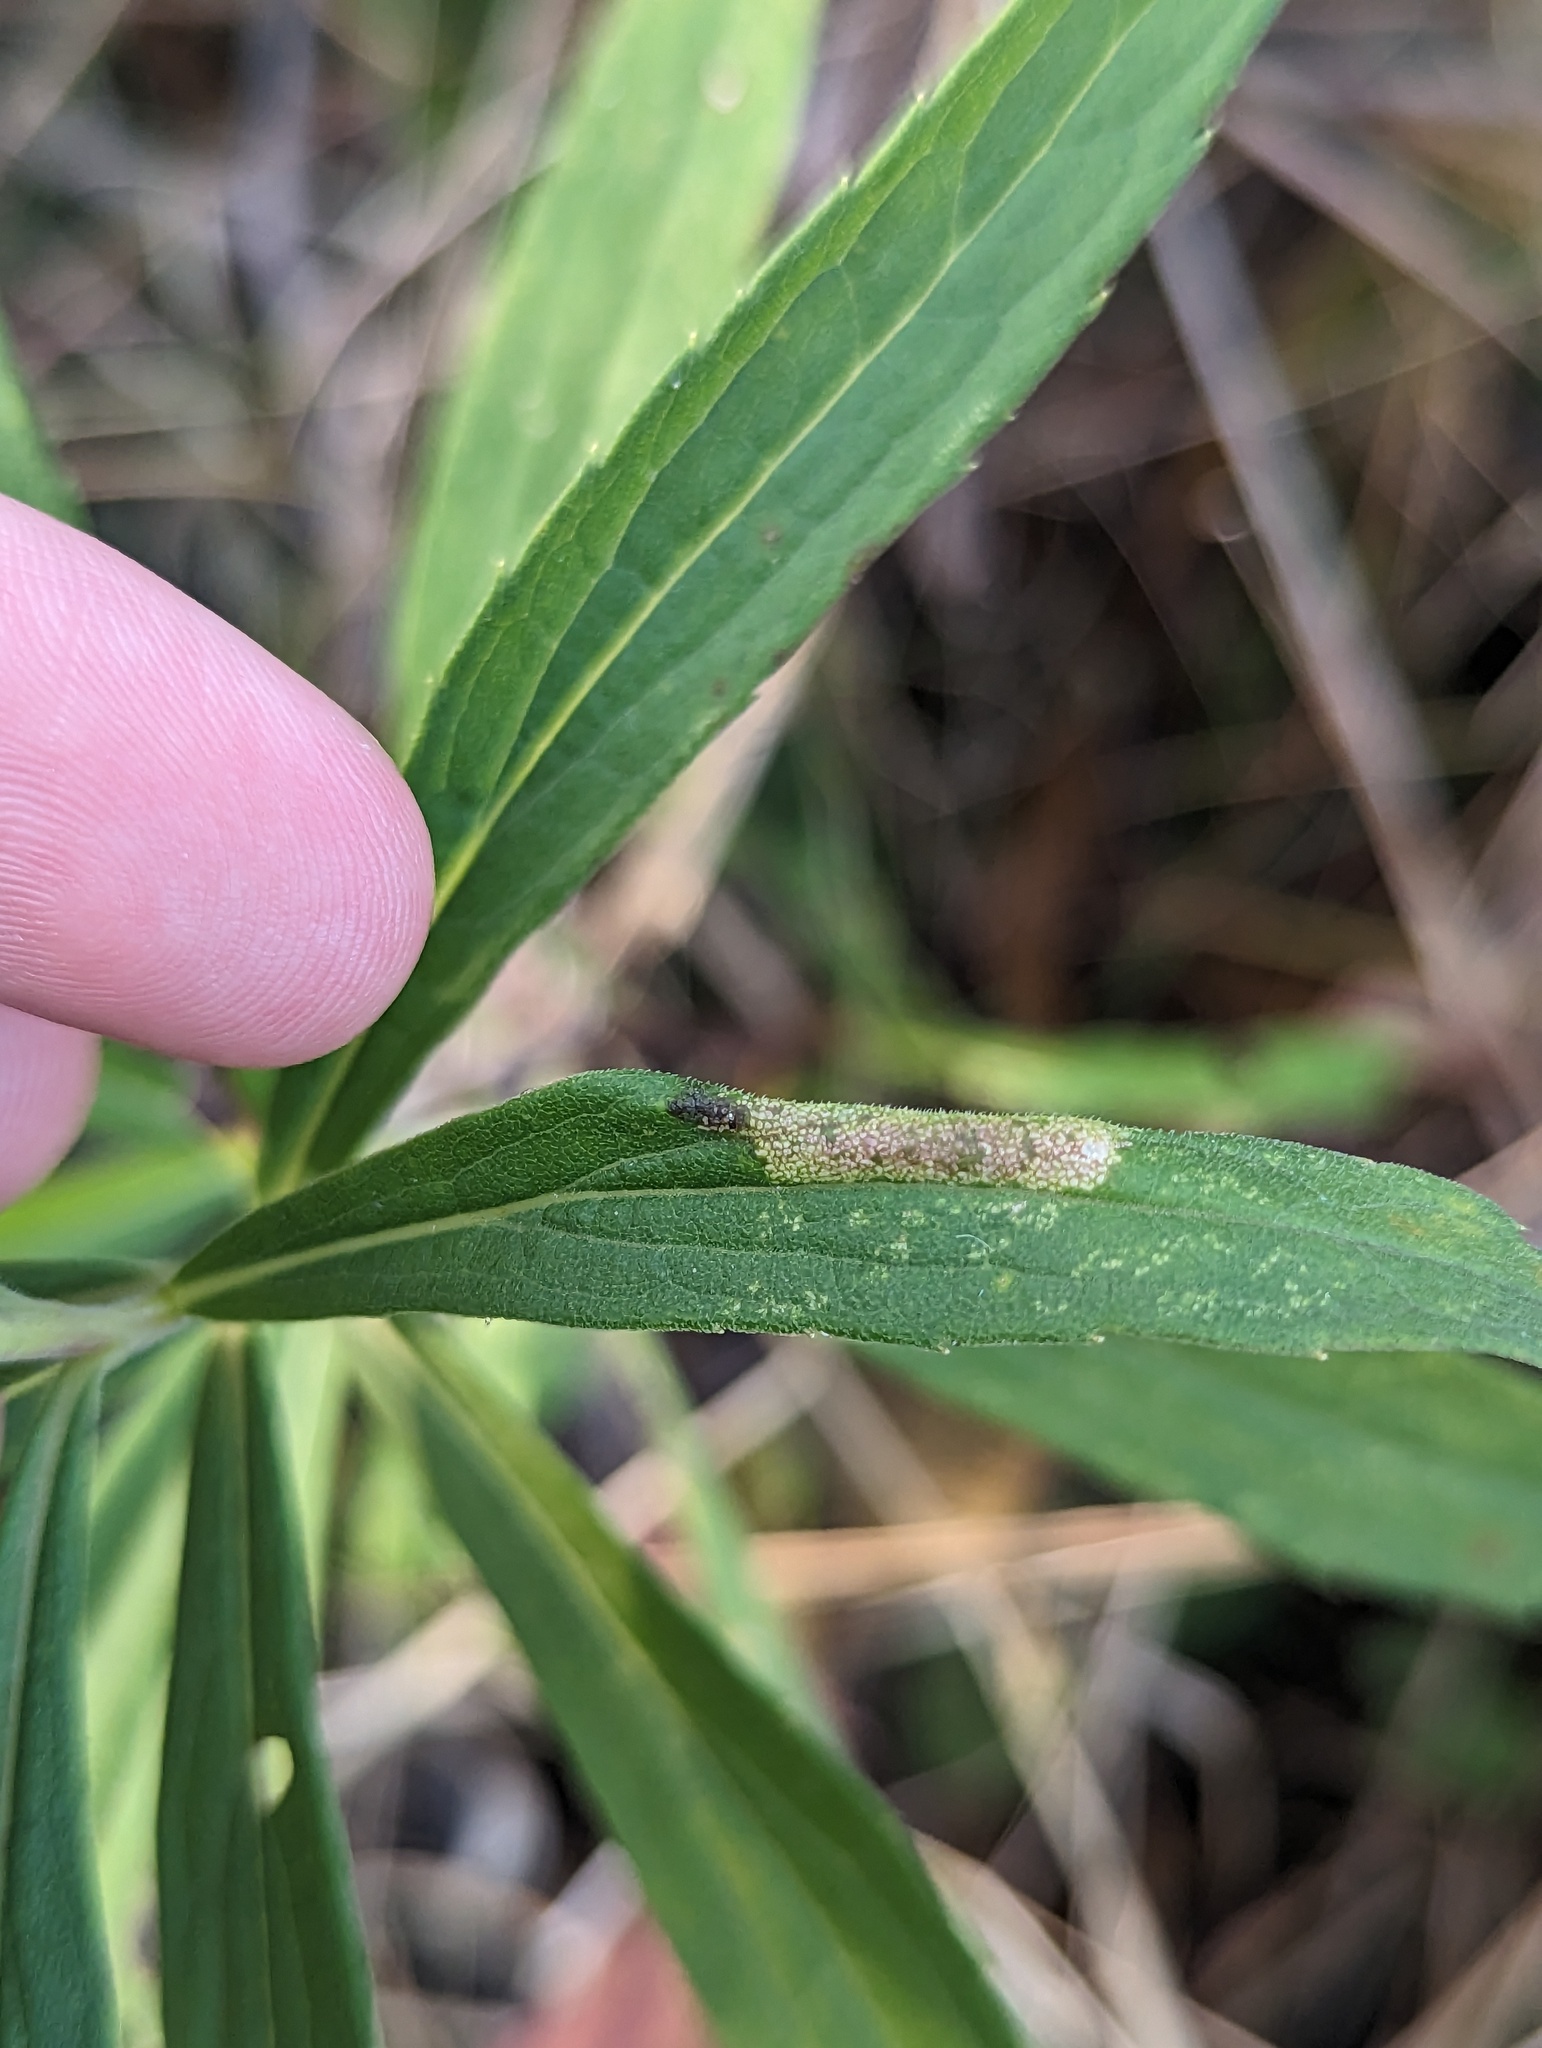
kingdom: Animalia
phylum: Arthropoda
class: Insecta
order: Lepidoptera
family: Gracillariidae
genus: Cremastobombycia
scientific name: Cremastobombycia solidaginis
